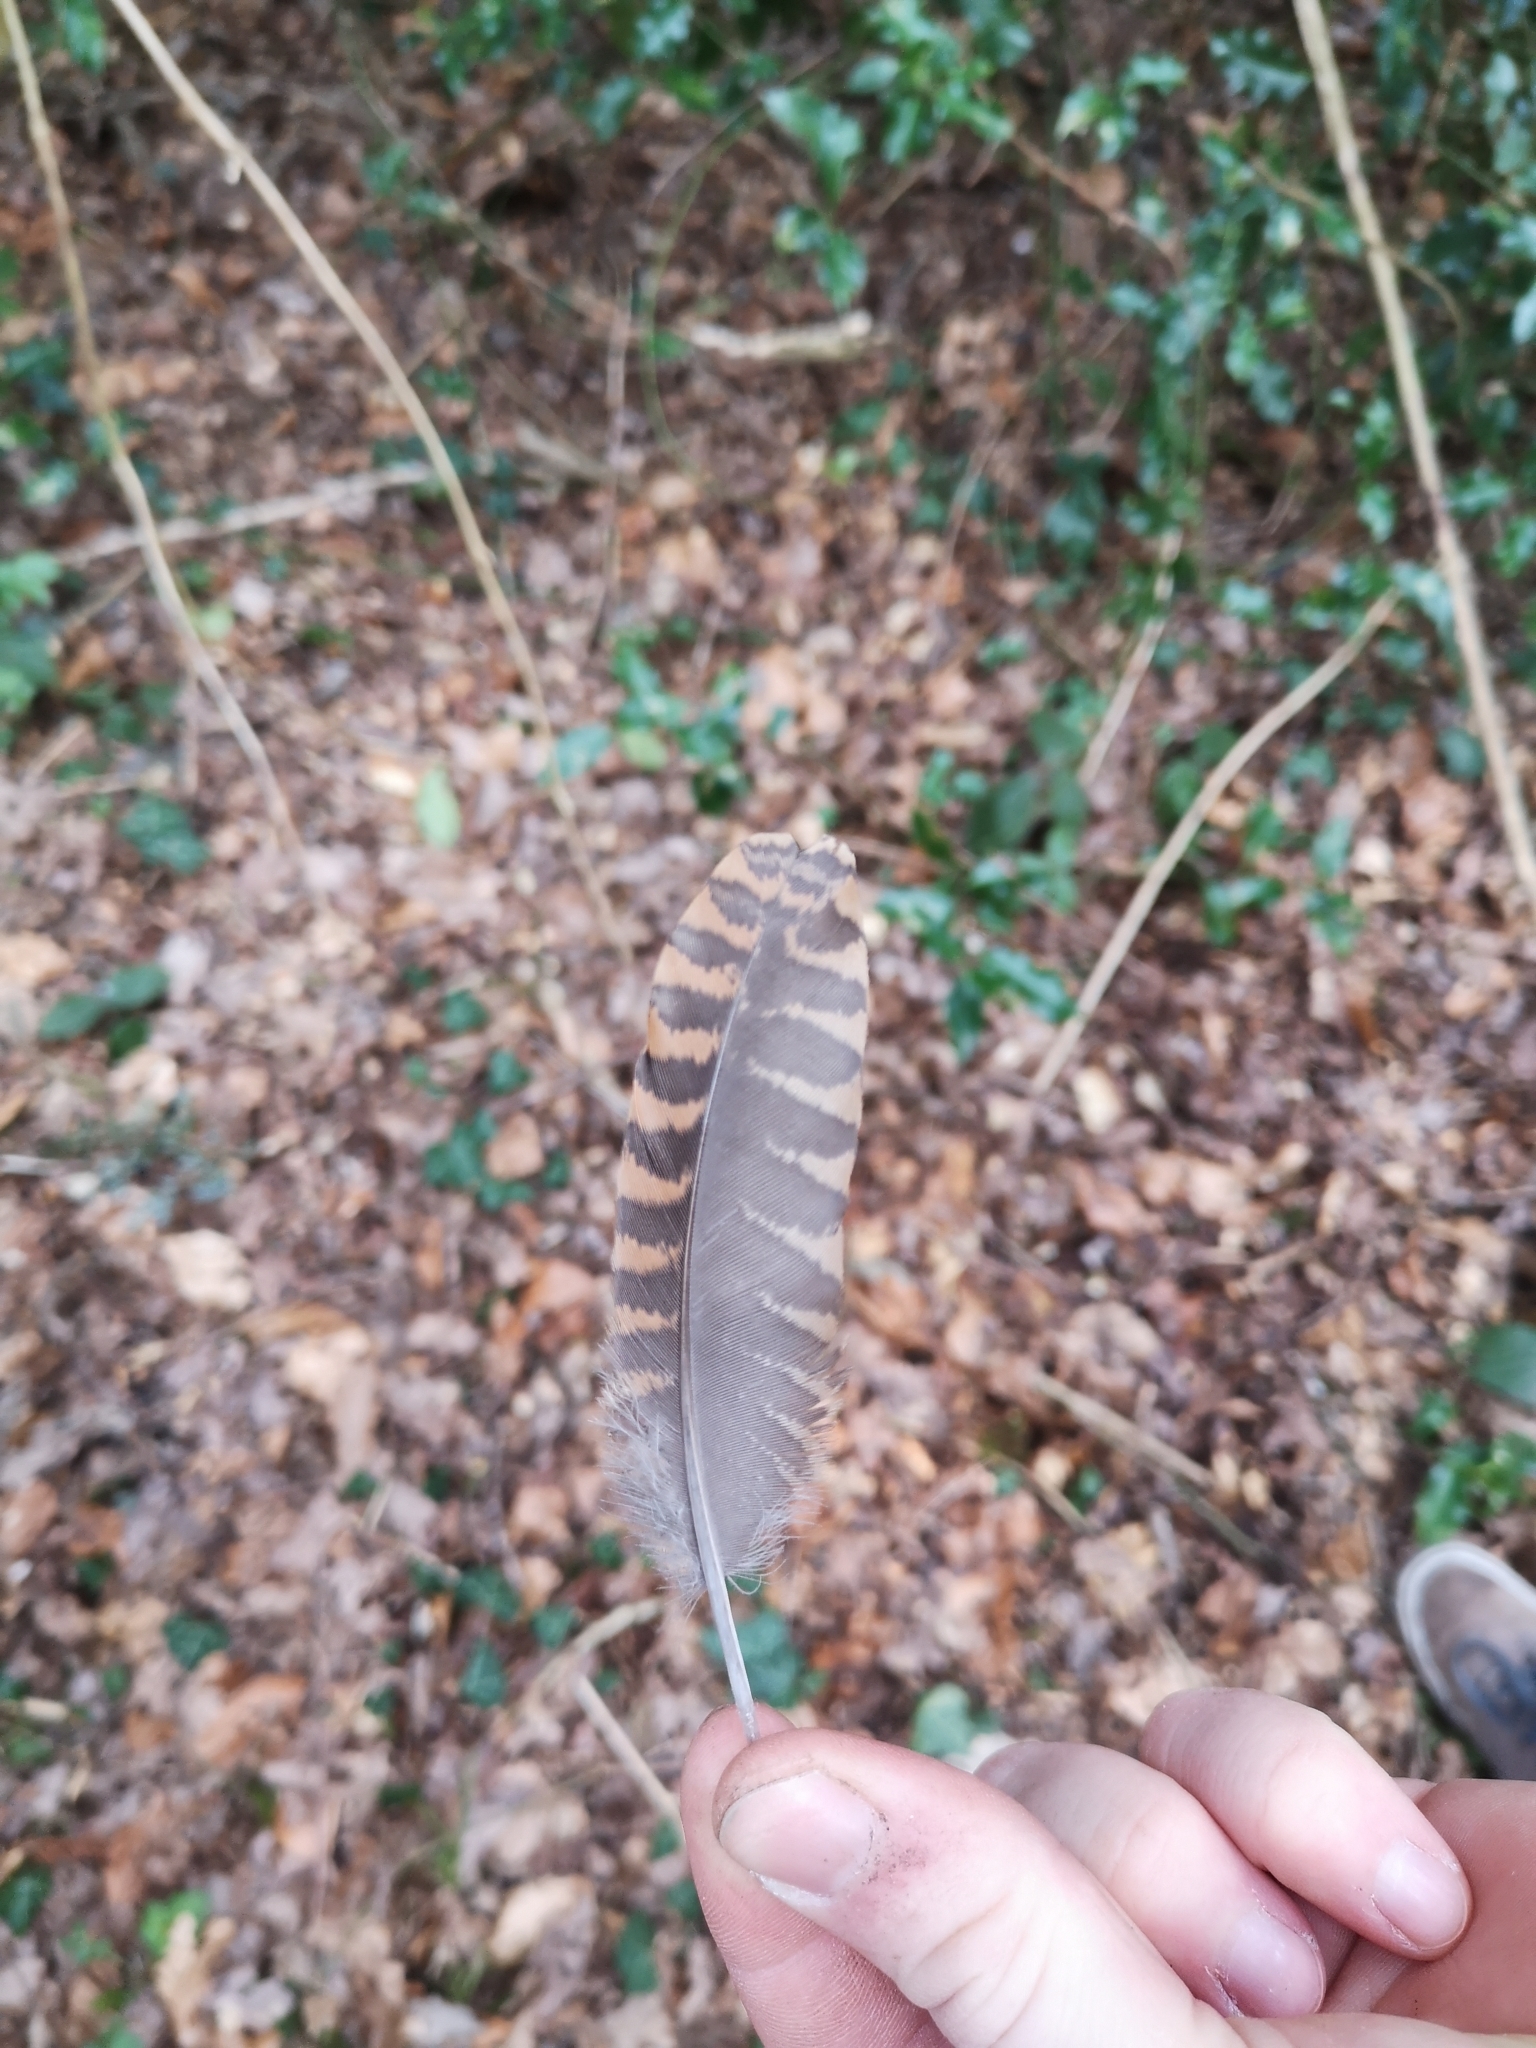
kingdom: Animalia
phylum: Chordata
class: Aves
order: Charadriiformes
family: Scolopacidae
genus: Scolopax
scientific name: Scolopax rusticola
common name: Eurasian woodcock
